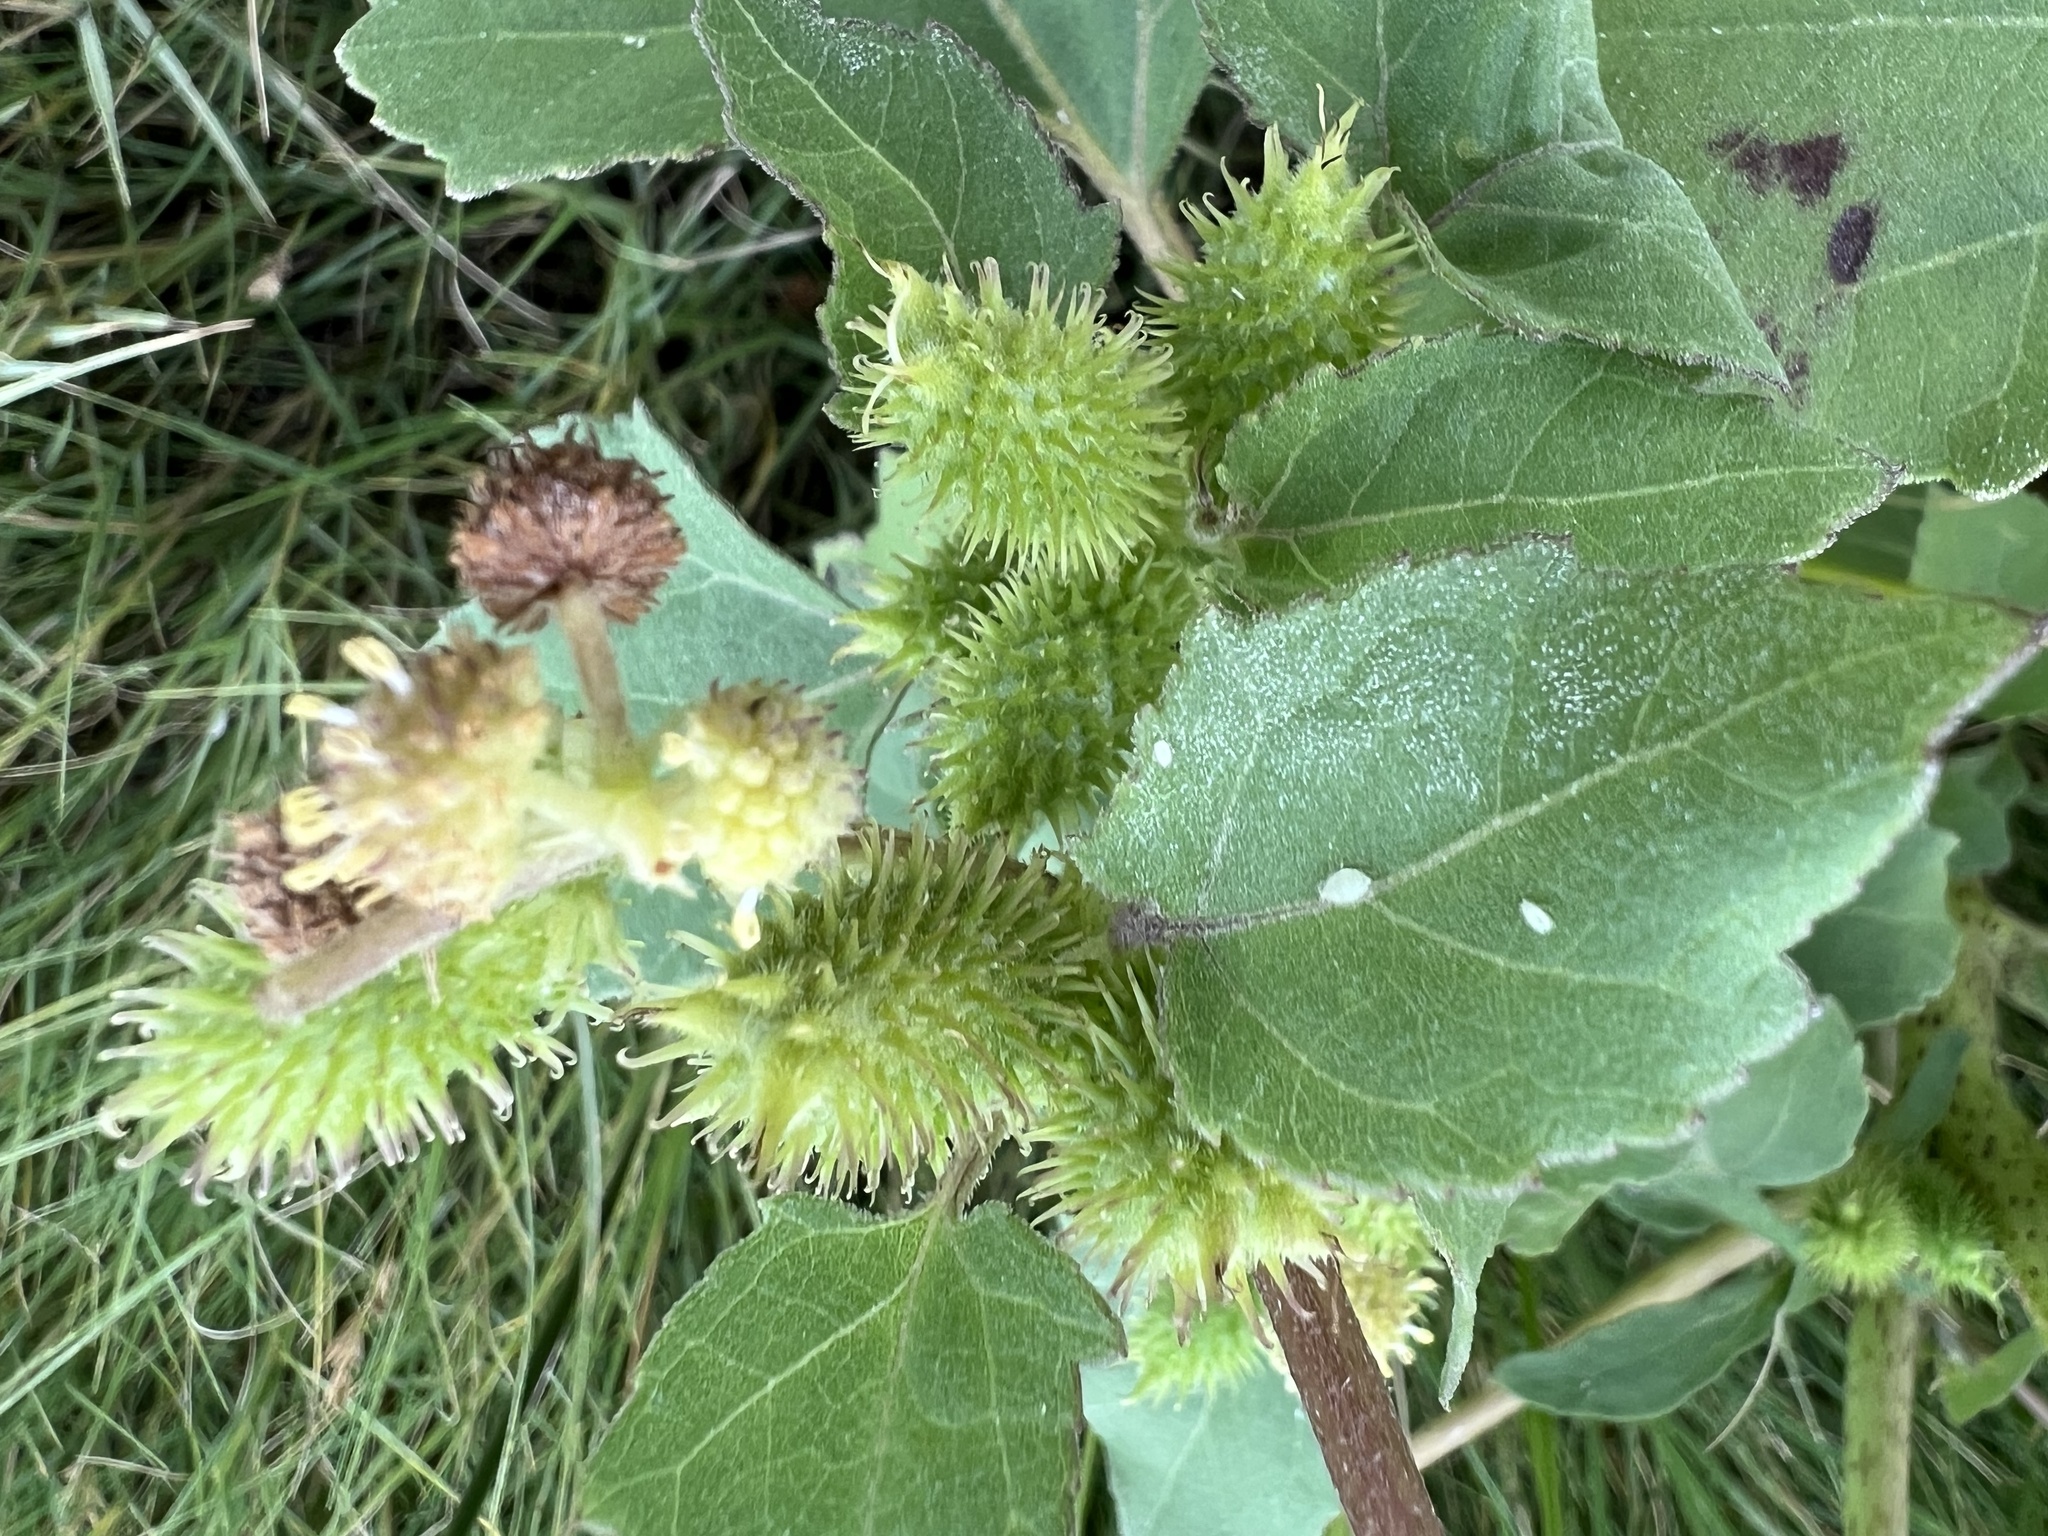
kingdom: Plantae
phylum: Tracheophyta
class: Magnoliopsida
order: Asterales
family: Asteraceae
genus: Xanthium
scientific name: Xanthium strumarium
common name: Rough cocklebur
